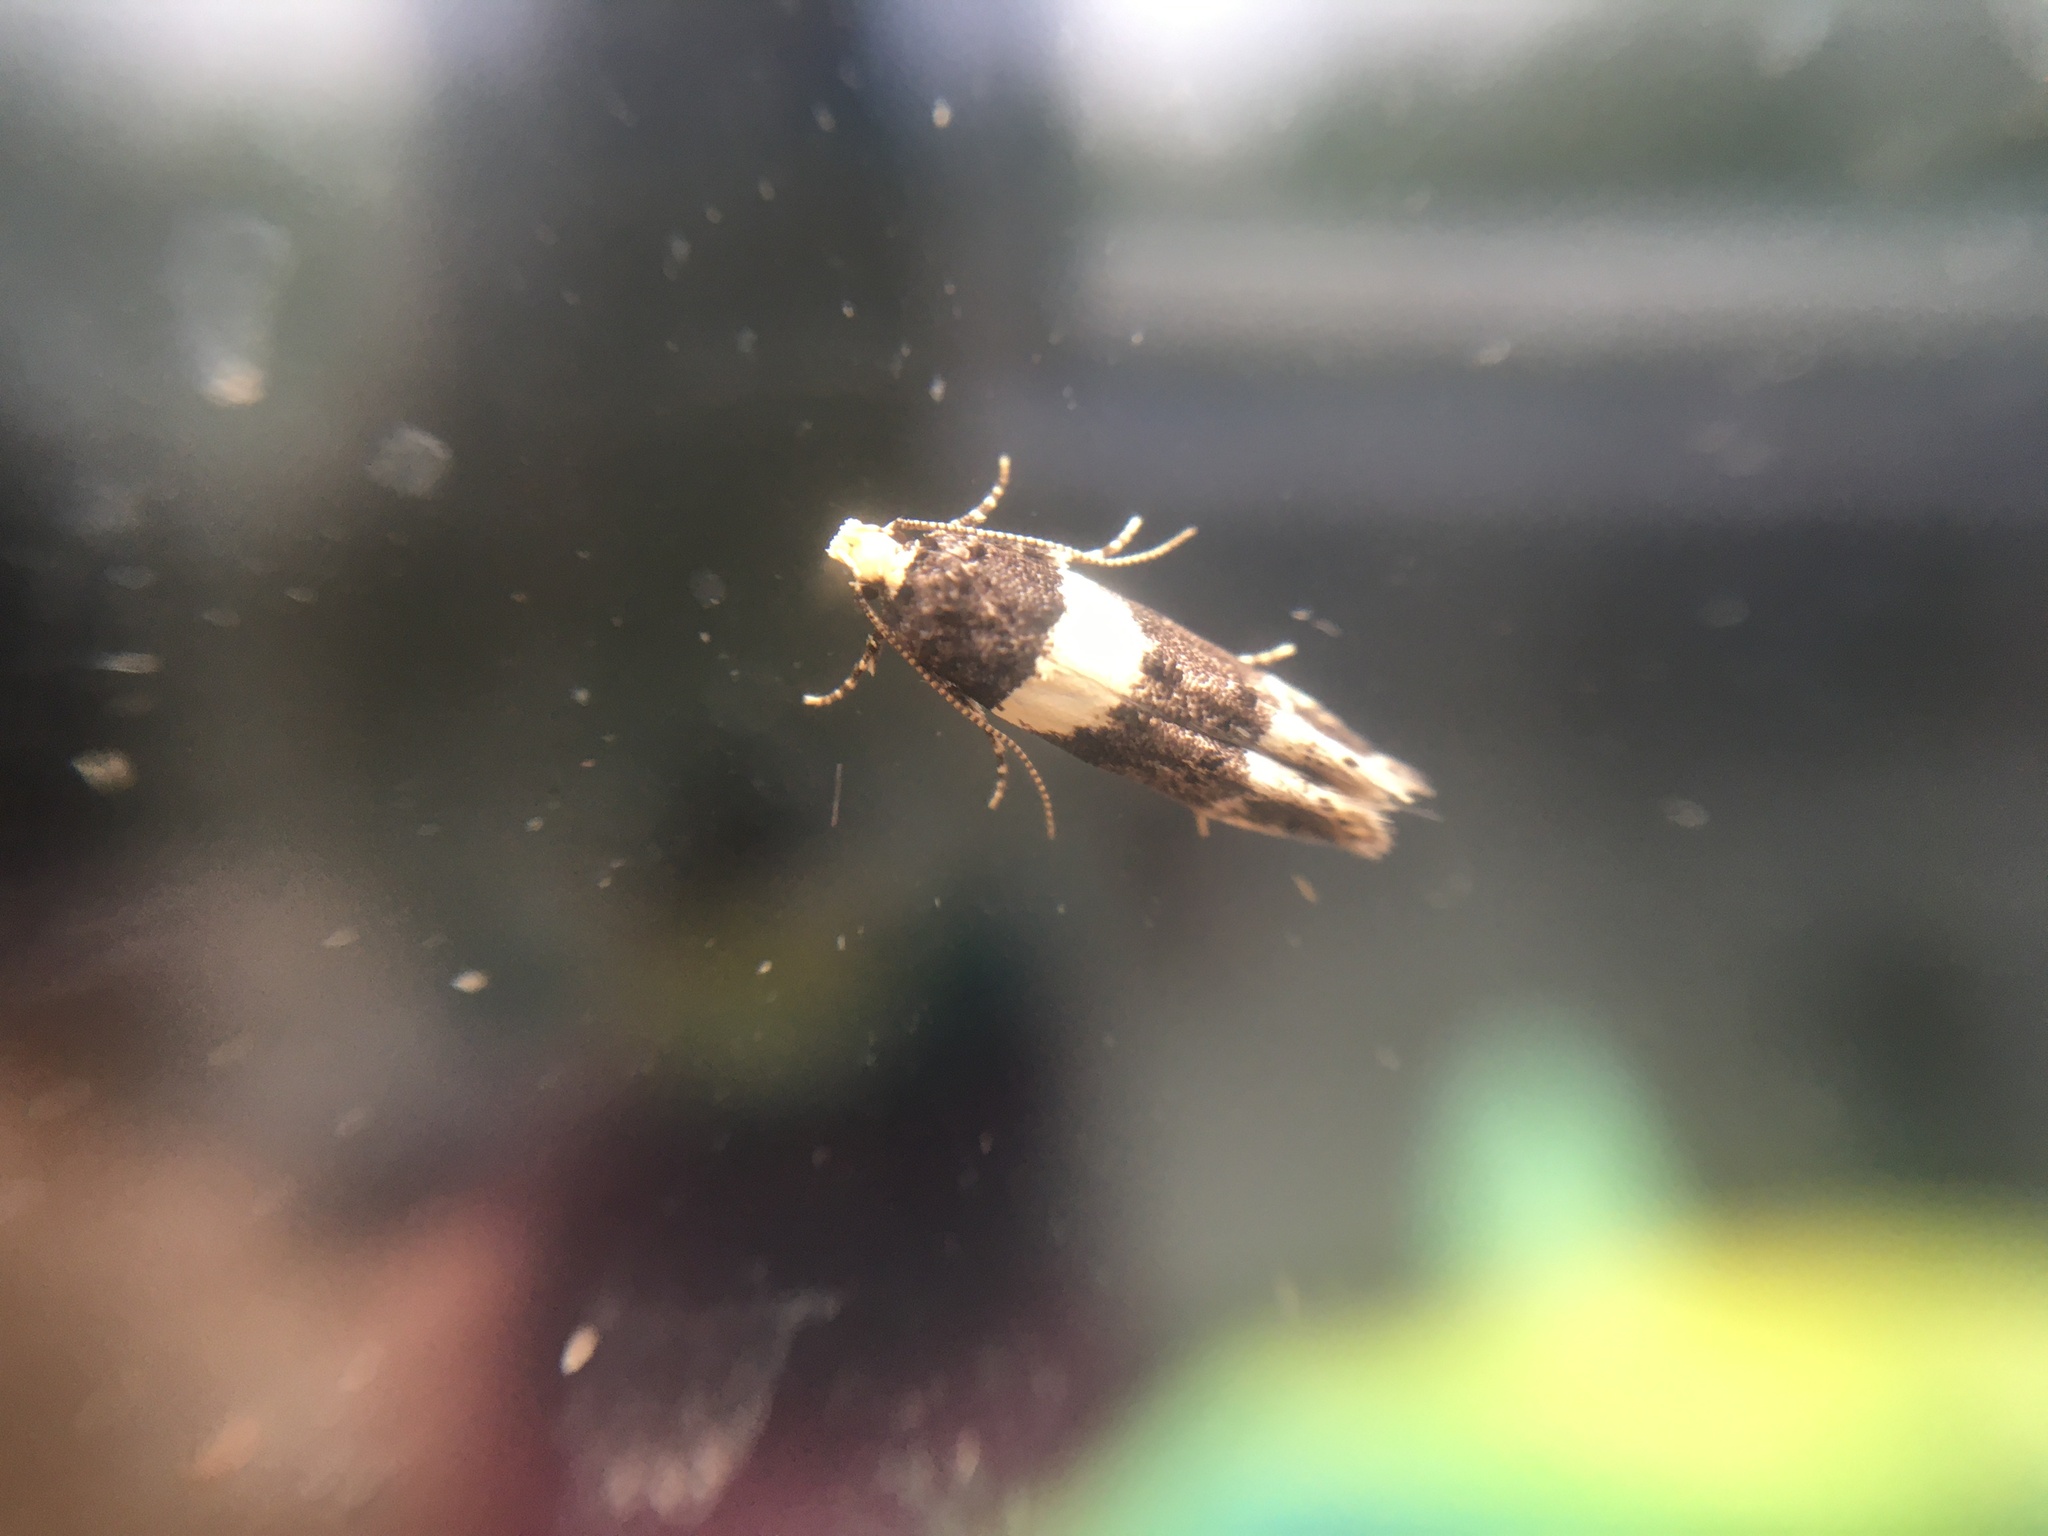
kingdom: Animalia
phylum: Arthropoda
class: Insecta
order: Lepidoptera
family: Gelechiidae
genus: Recurvaria
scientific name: Recurvaria leucatella
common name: White-barred groundling
